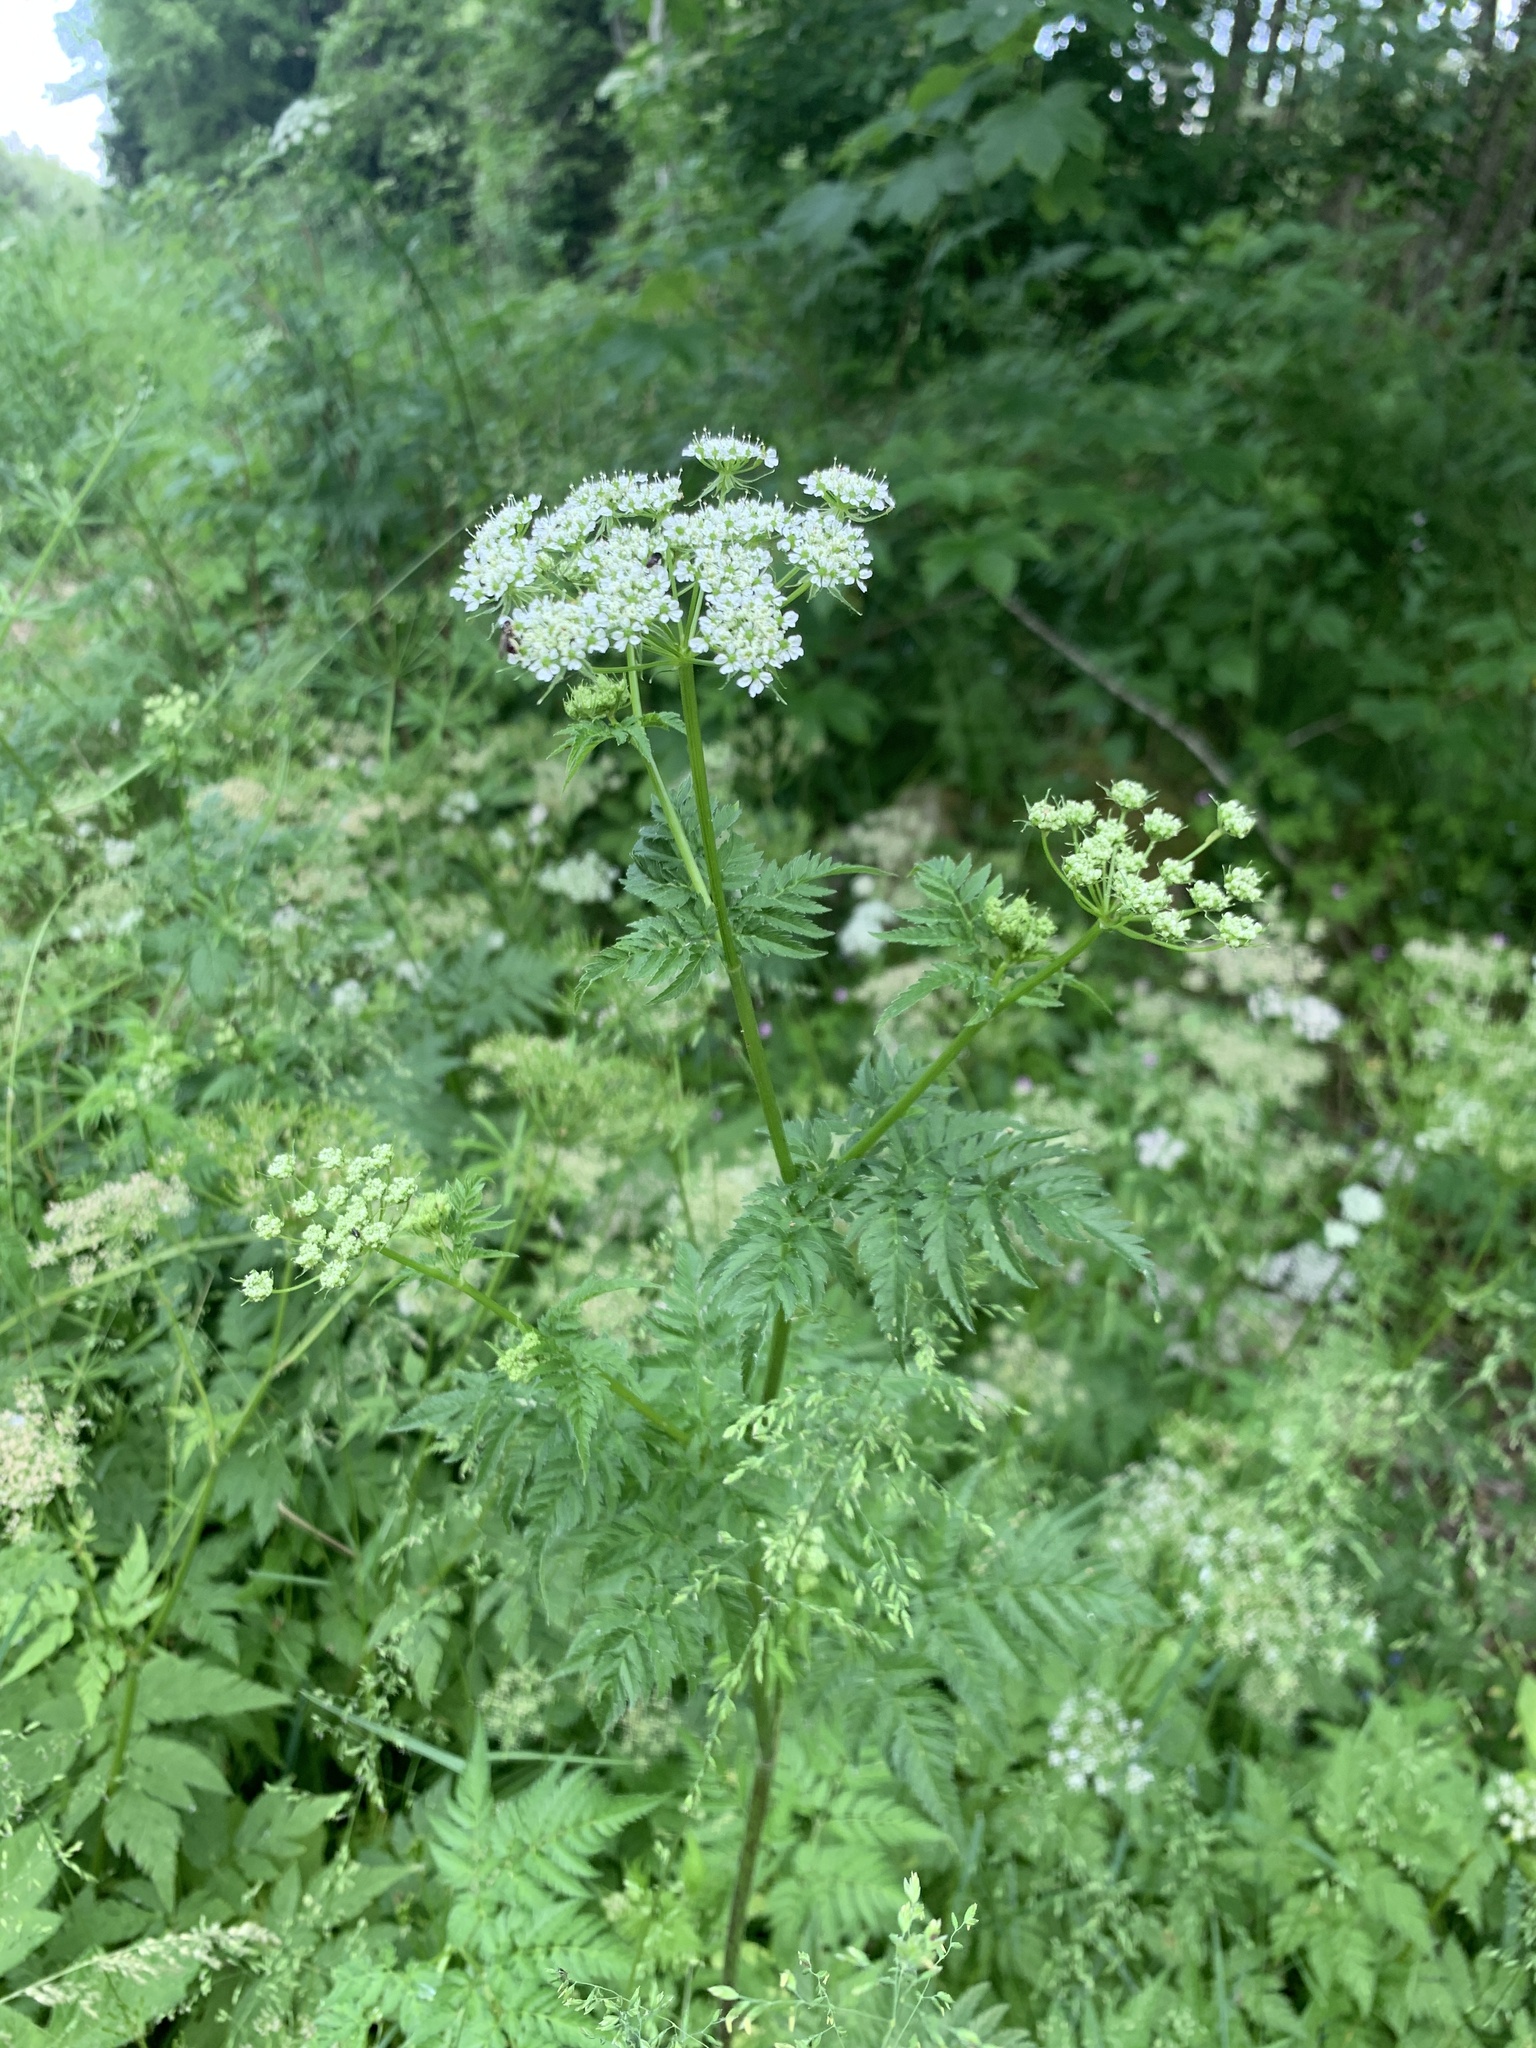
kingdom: Plantae
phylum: Tracheophyta
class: Magnoliopsida
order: Apiales
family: Apiaceae
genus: Chaerophyllum
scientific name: Chaerophyllum aureum
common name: Golden chervil
